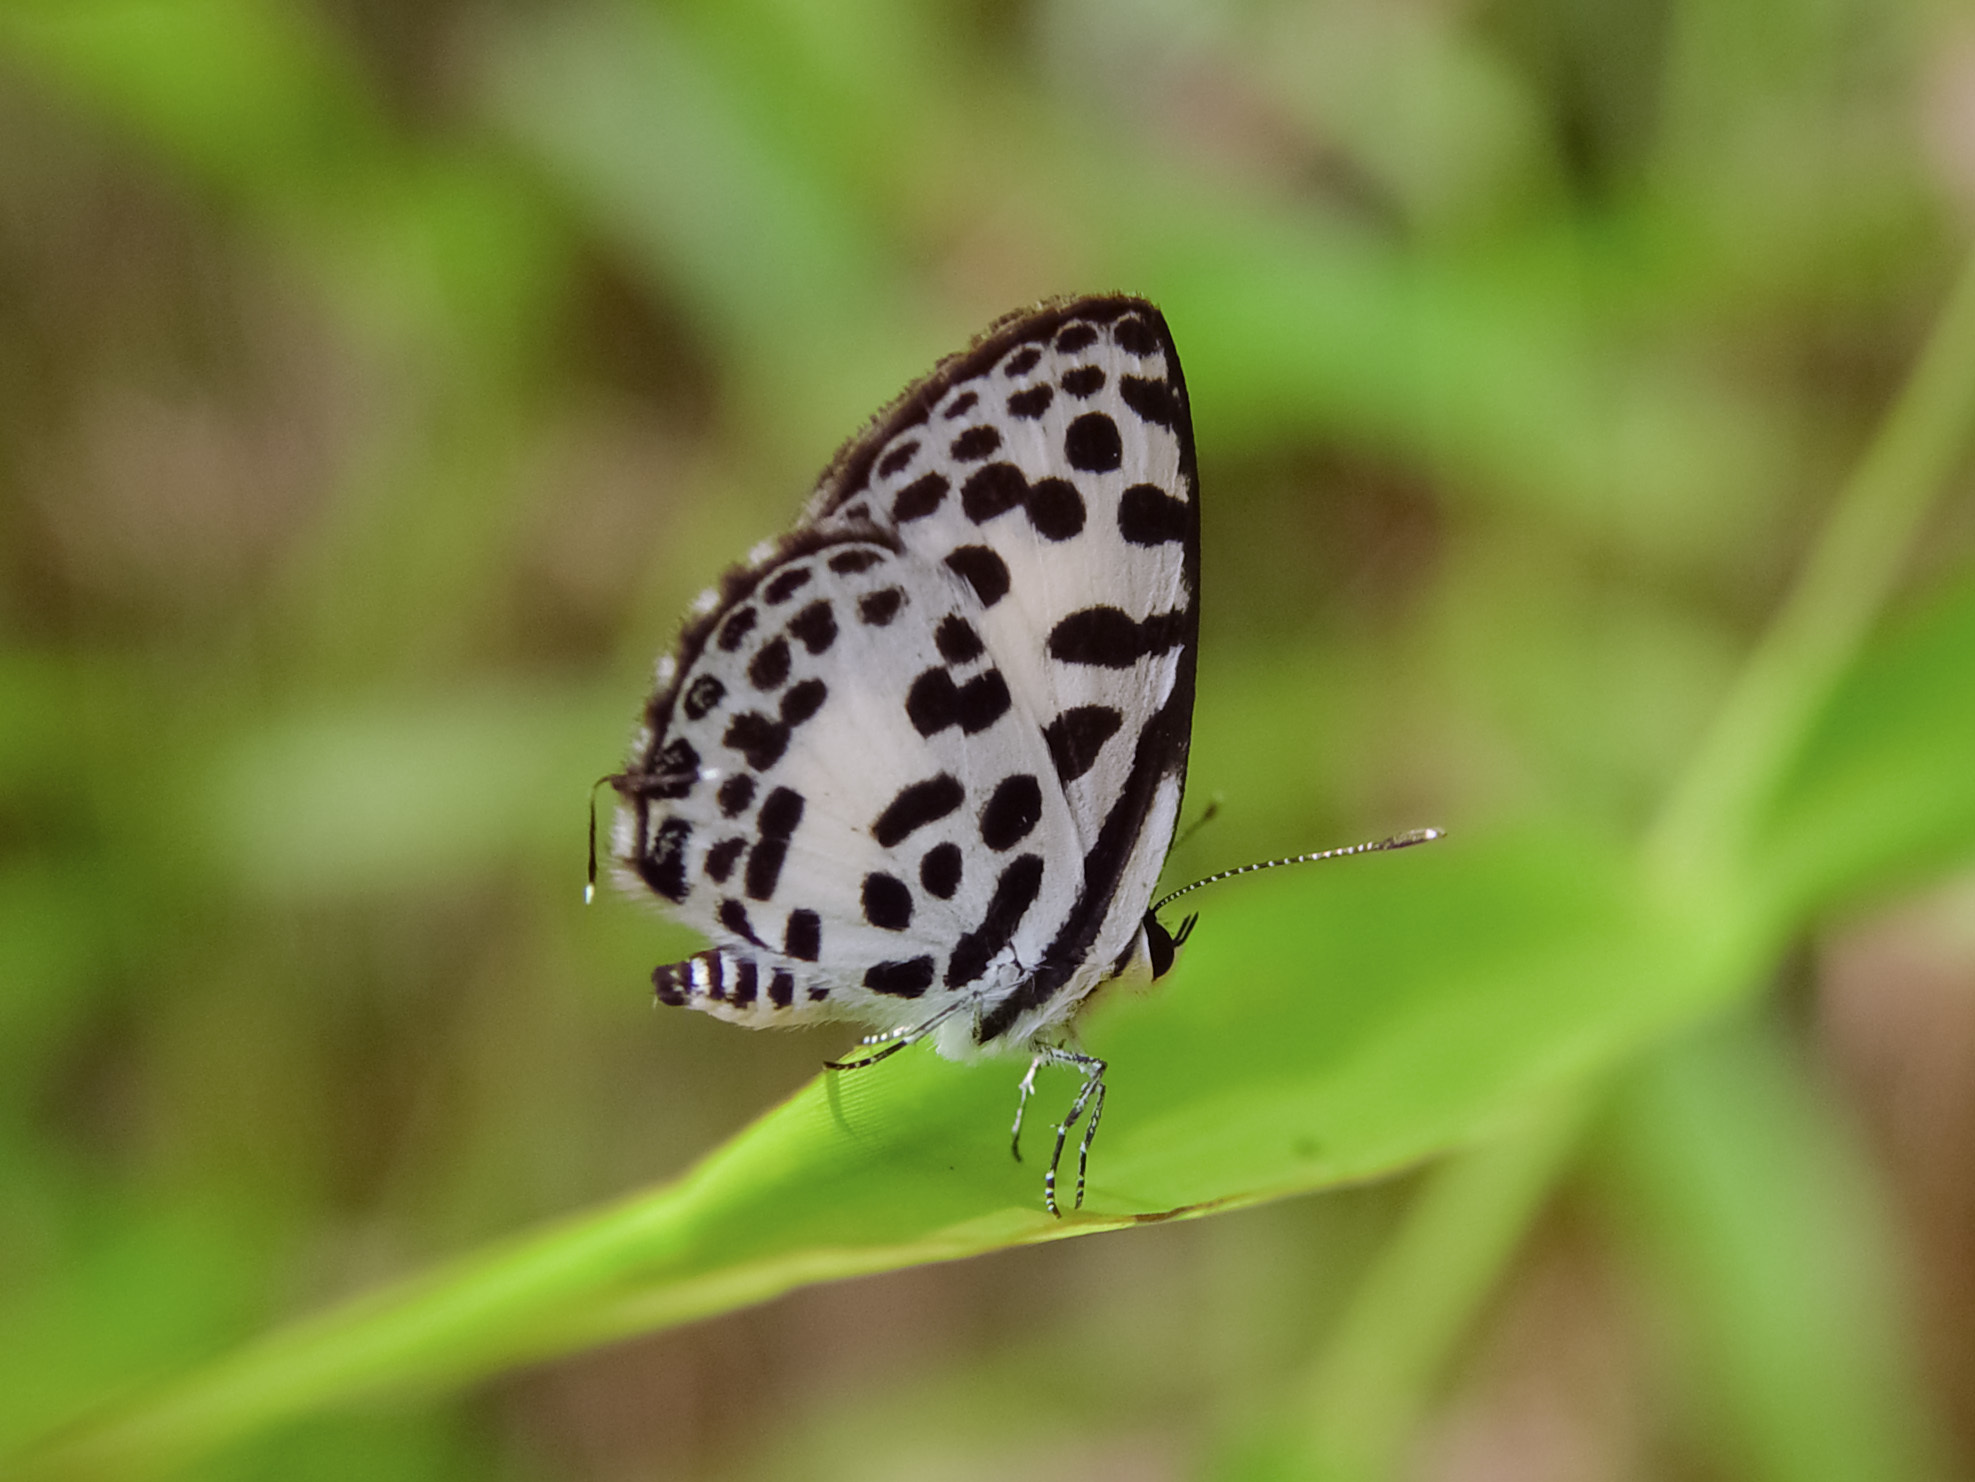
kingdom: Animalia
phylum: Arthropoda
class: Insecta
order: Lepidoptera
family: Lycaenidae
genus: Castalius
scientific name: Castalius rosimon
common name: Common pierrot
